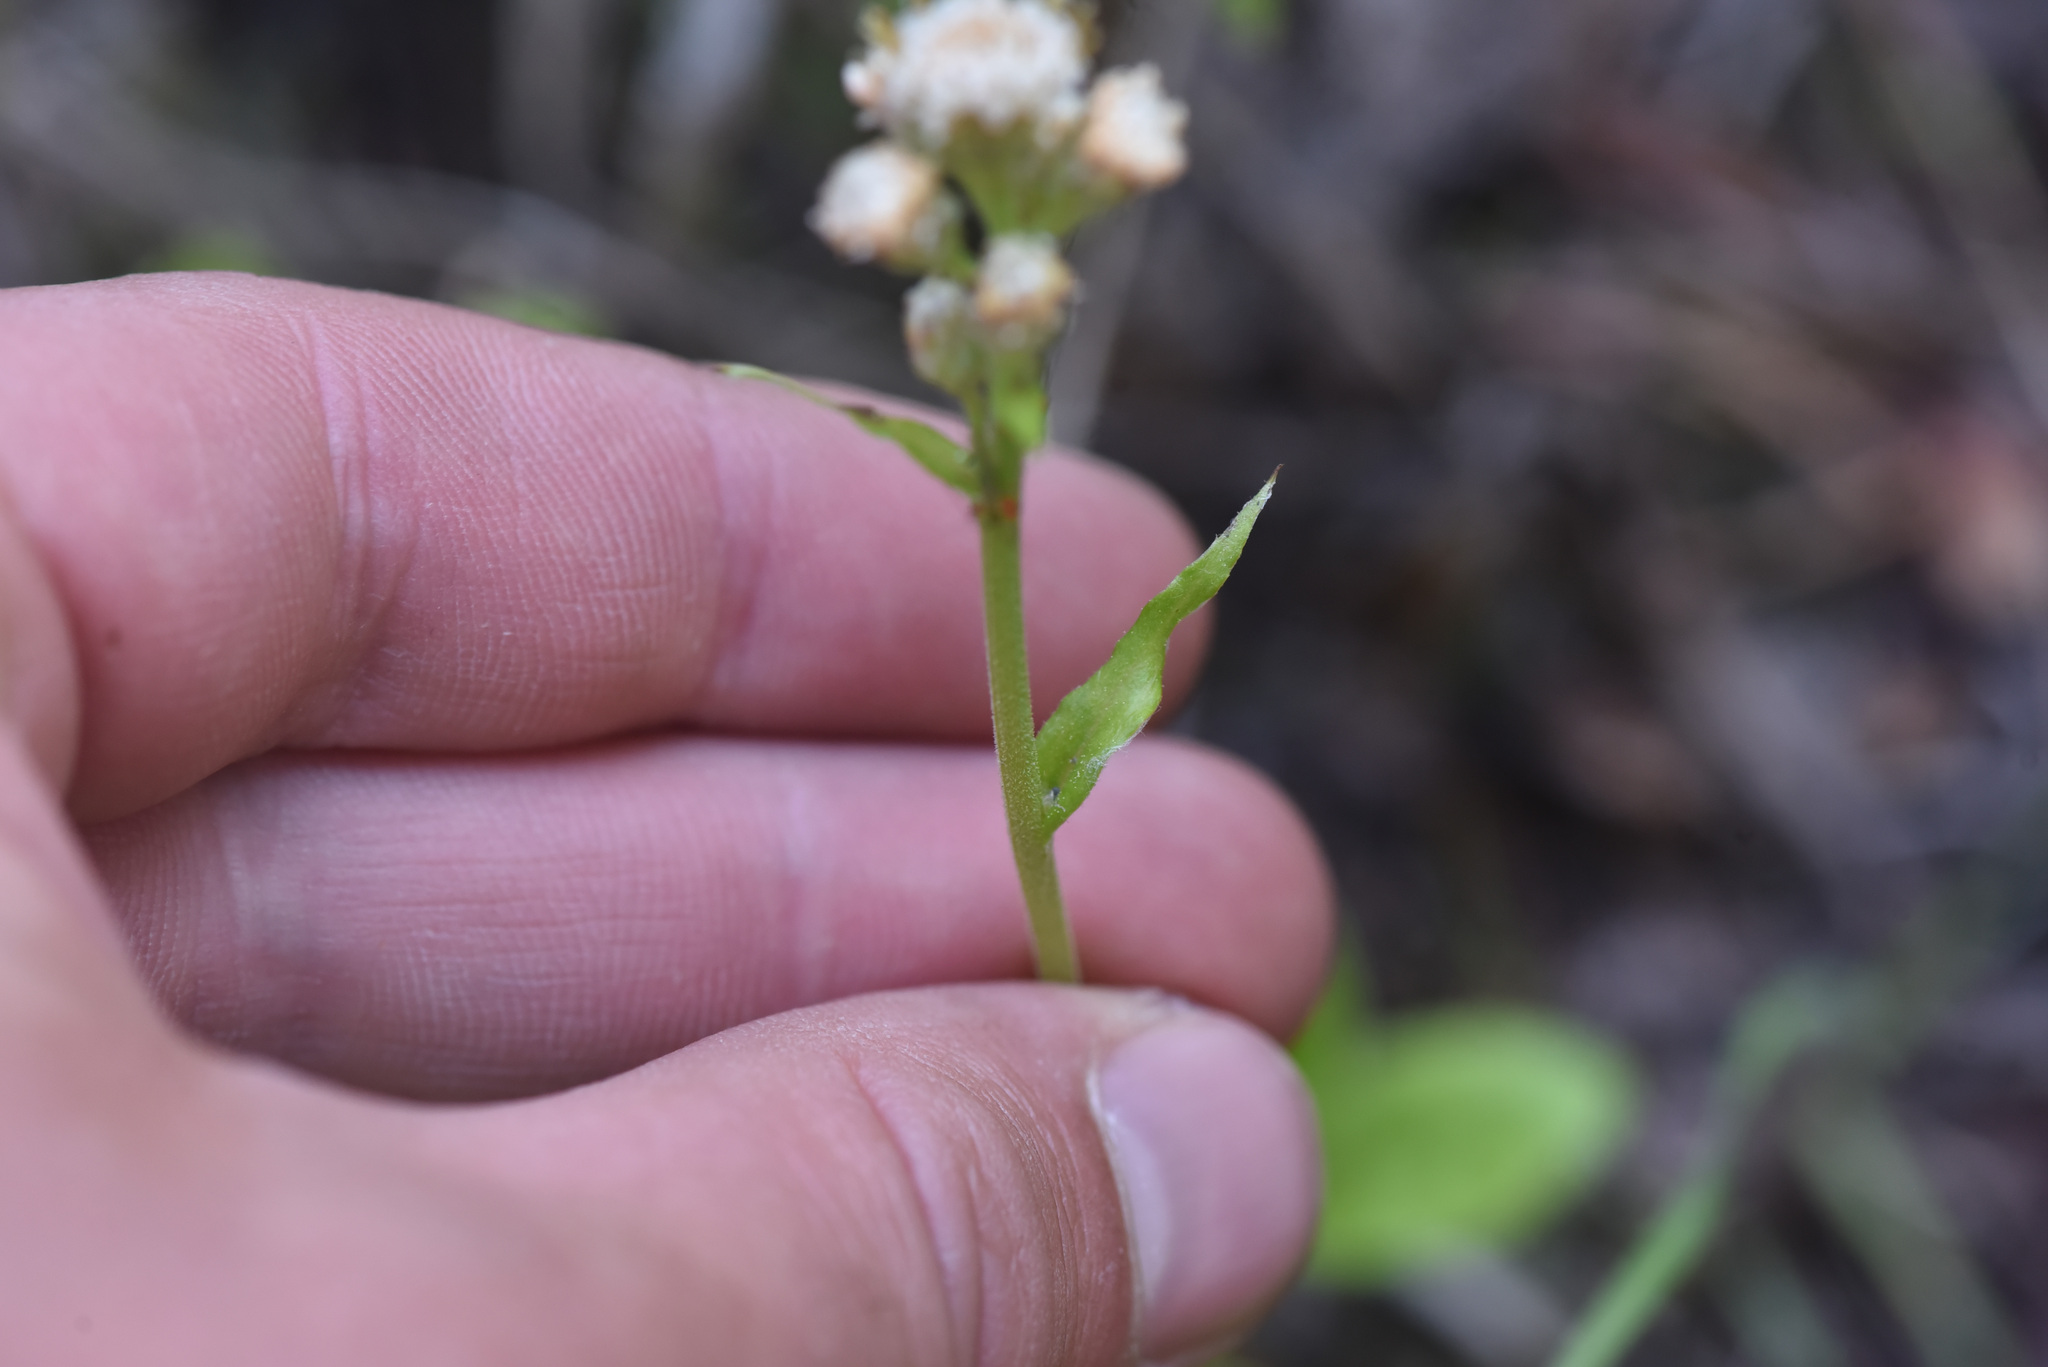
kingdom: Plantae
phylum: Tracheophyta
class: Magnoliopsida
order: Asterales
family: Asteraceae
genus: Antennaria
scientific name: Antennaria racemosa
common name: Racemose pussytoes
